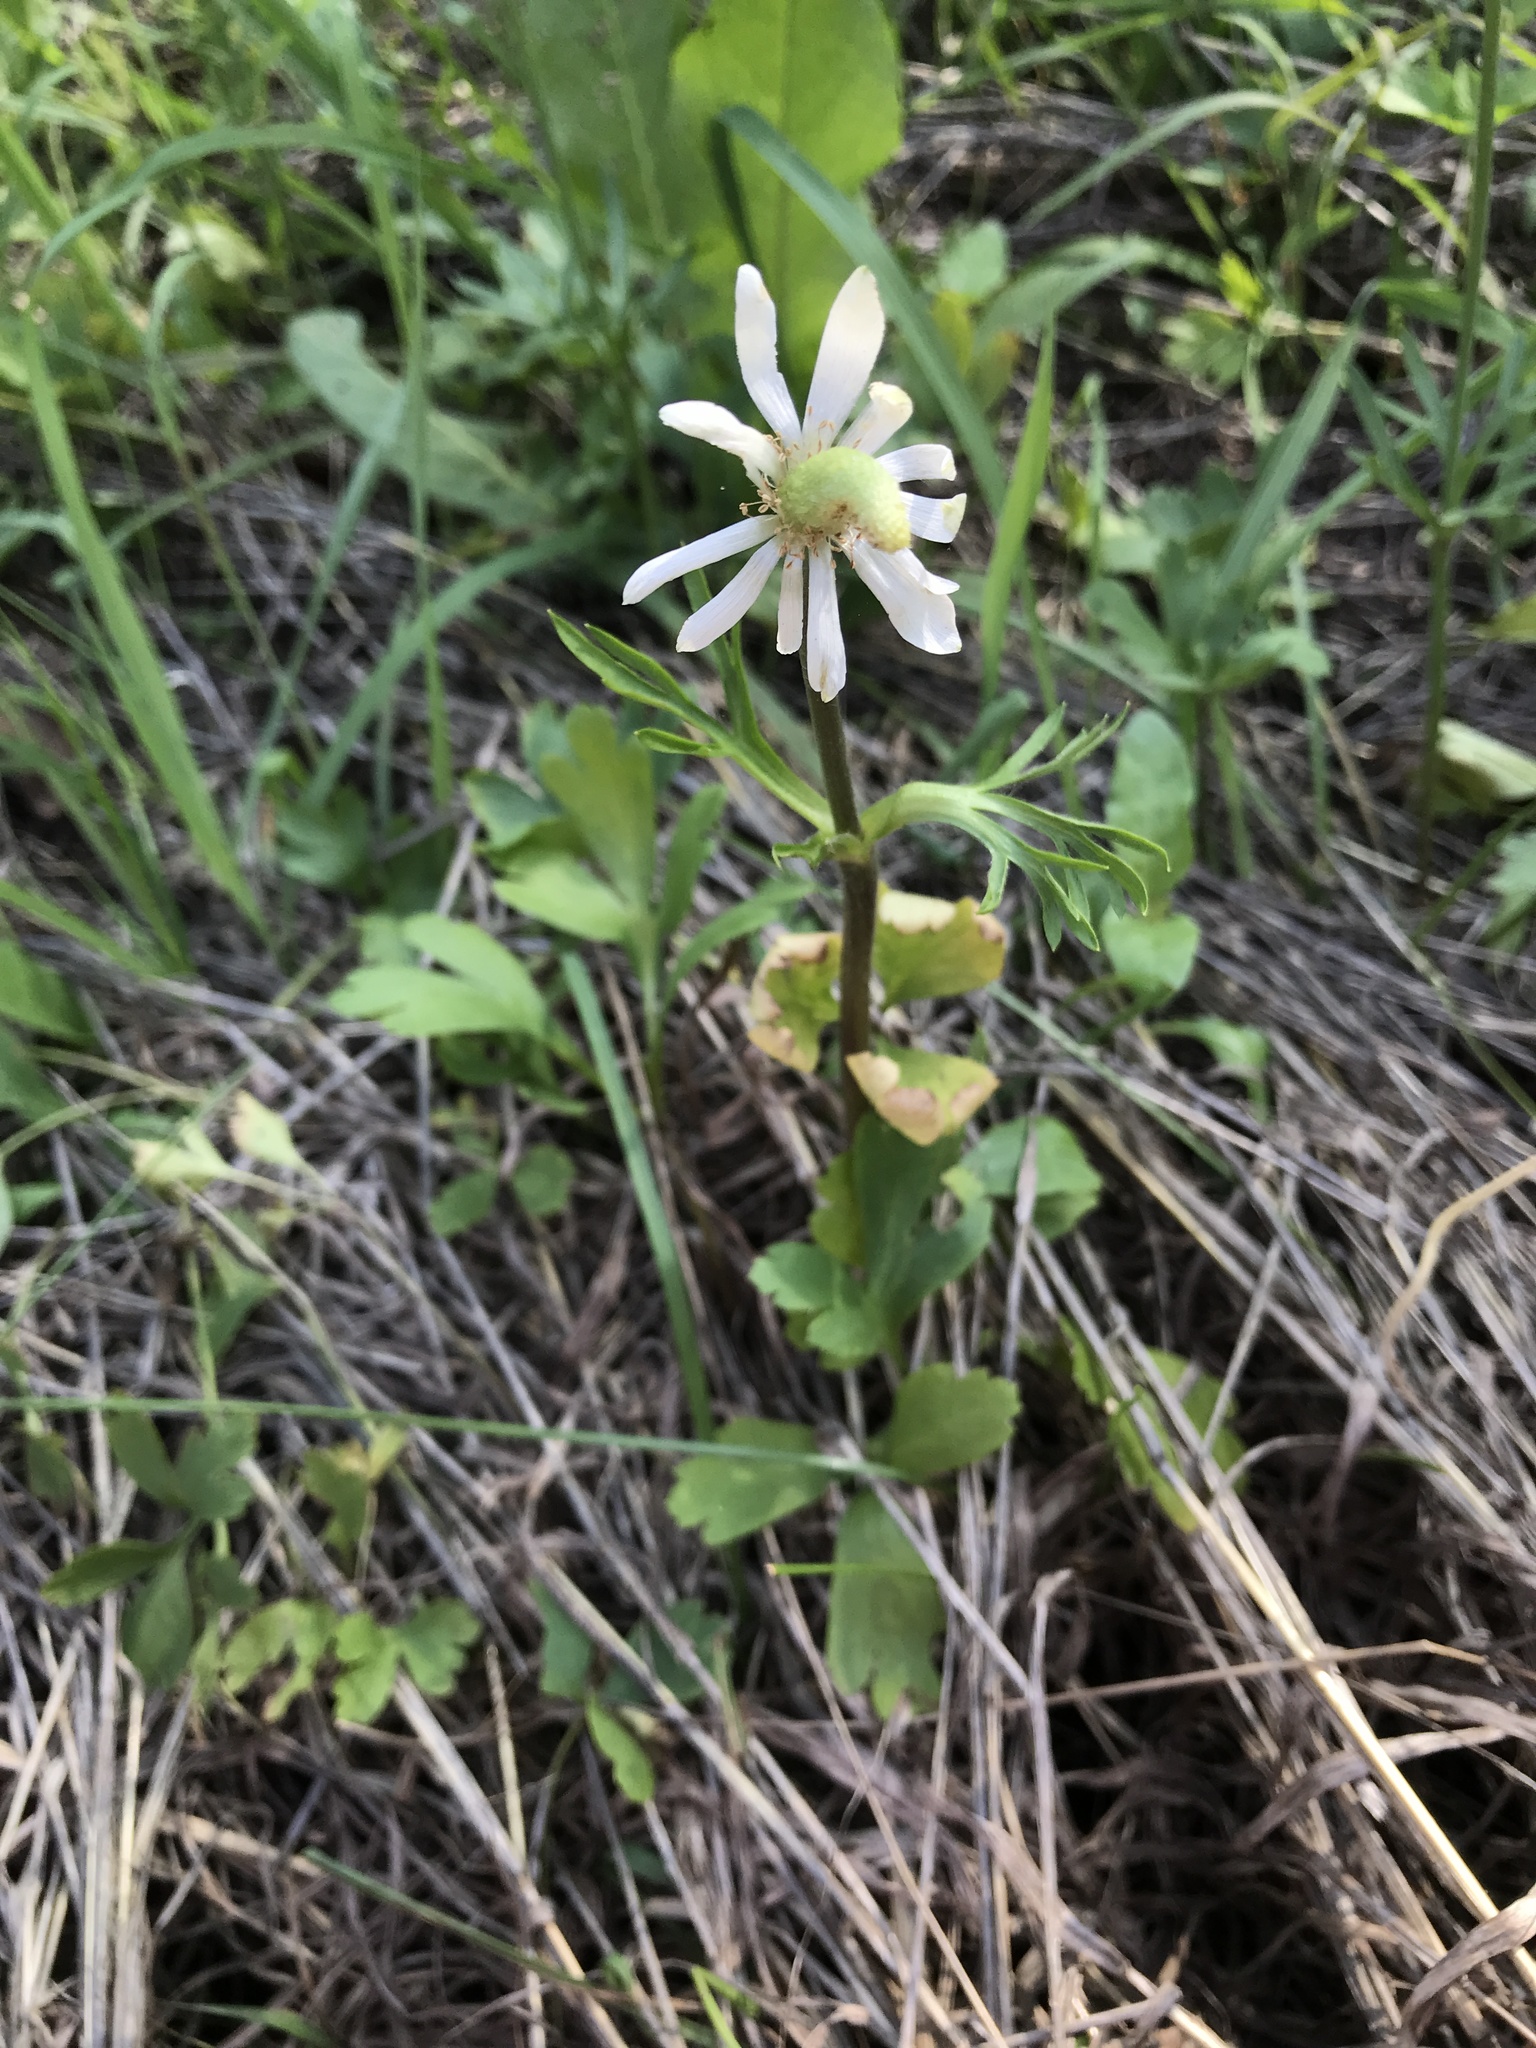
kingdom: Plantae
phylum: Tracheophyta
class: Magnoliopsida
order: Ranunculales
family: Ranunculaceae
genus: Anemone
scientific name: Anemone berlandieri
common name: Ten-petal anemone
